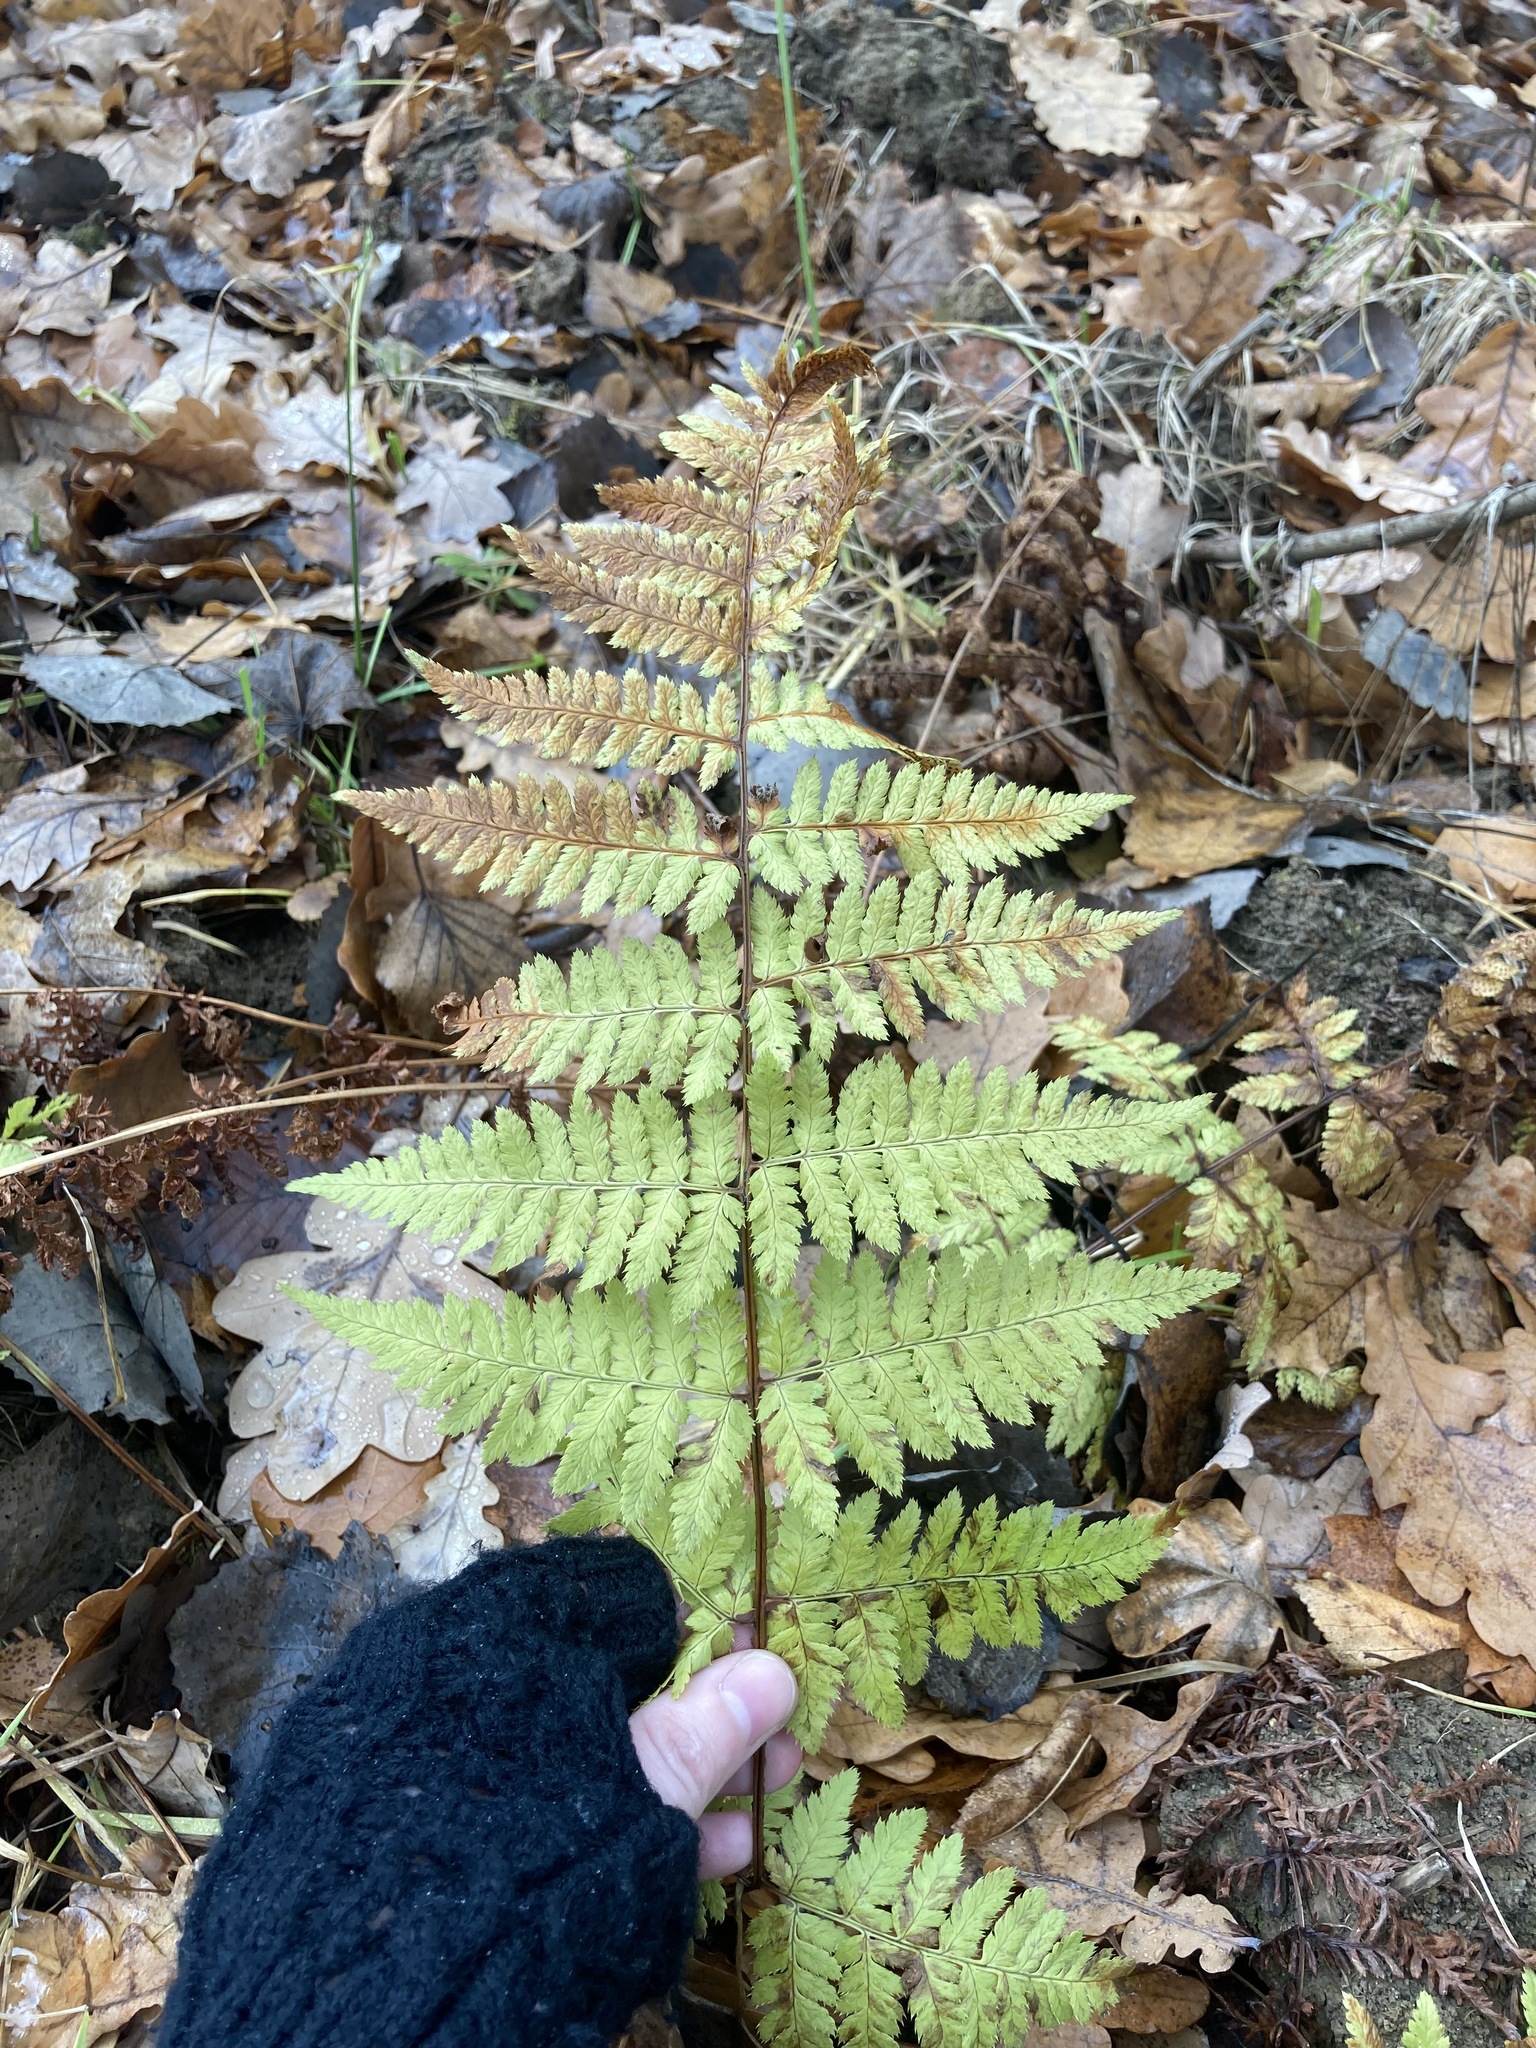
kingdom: Plantae
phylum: Tracheophyta
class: Polypodiopsida
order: Polypodiales
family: Dryopteridaceae
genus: Dryopteris
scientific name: Dryopteris carthusiana
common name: Narrow buckler-fern
